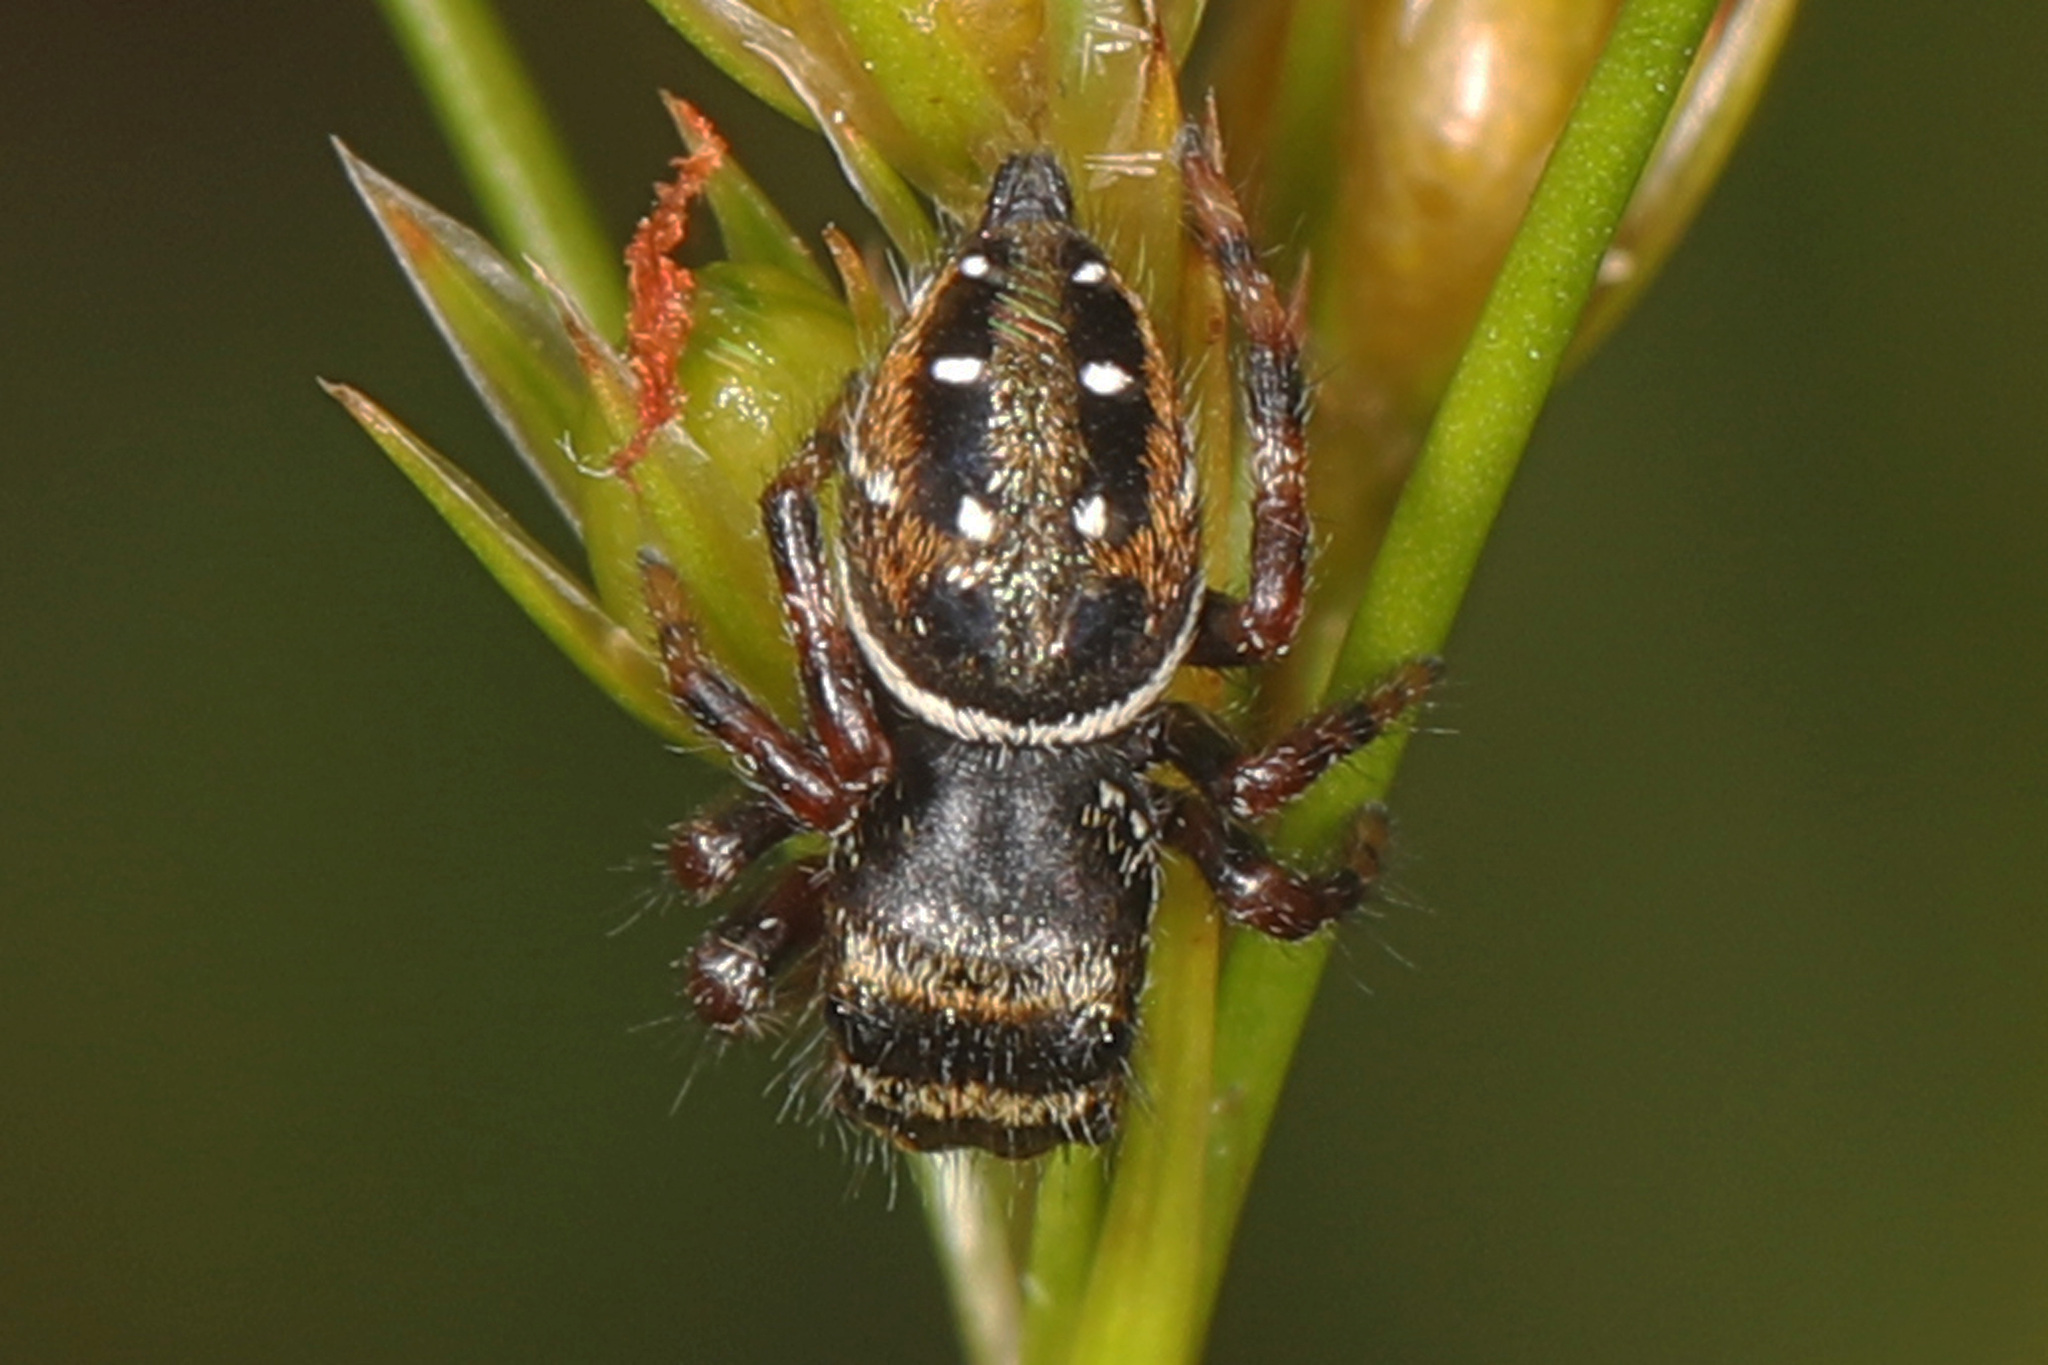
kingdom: Animalia
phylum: Arthropoda
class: Arachnida
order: Araneae
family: Salticidae
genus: Phidippus
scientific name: Phidippus clarus
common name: Brilliant jumping spider
